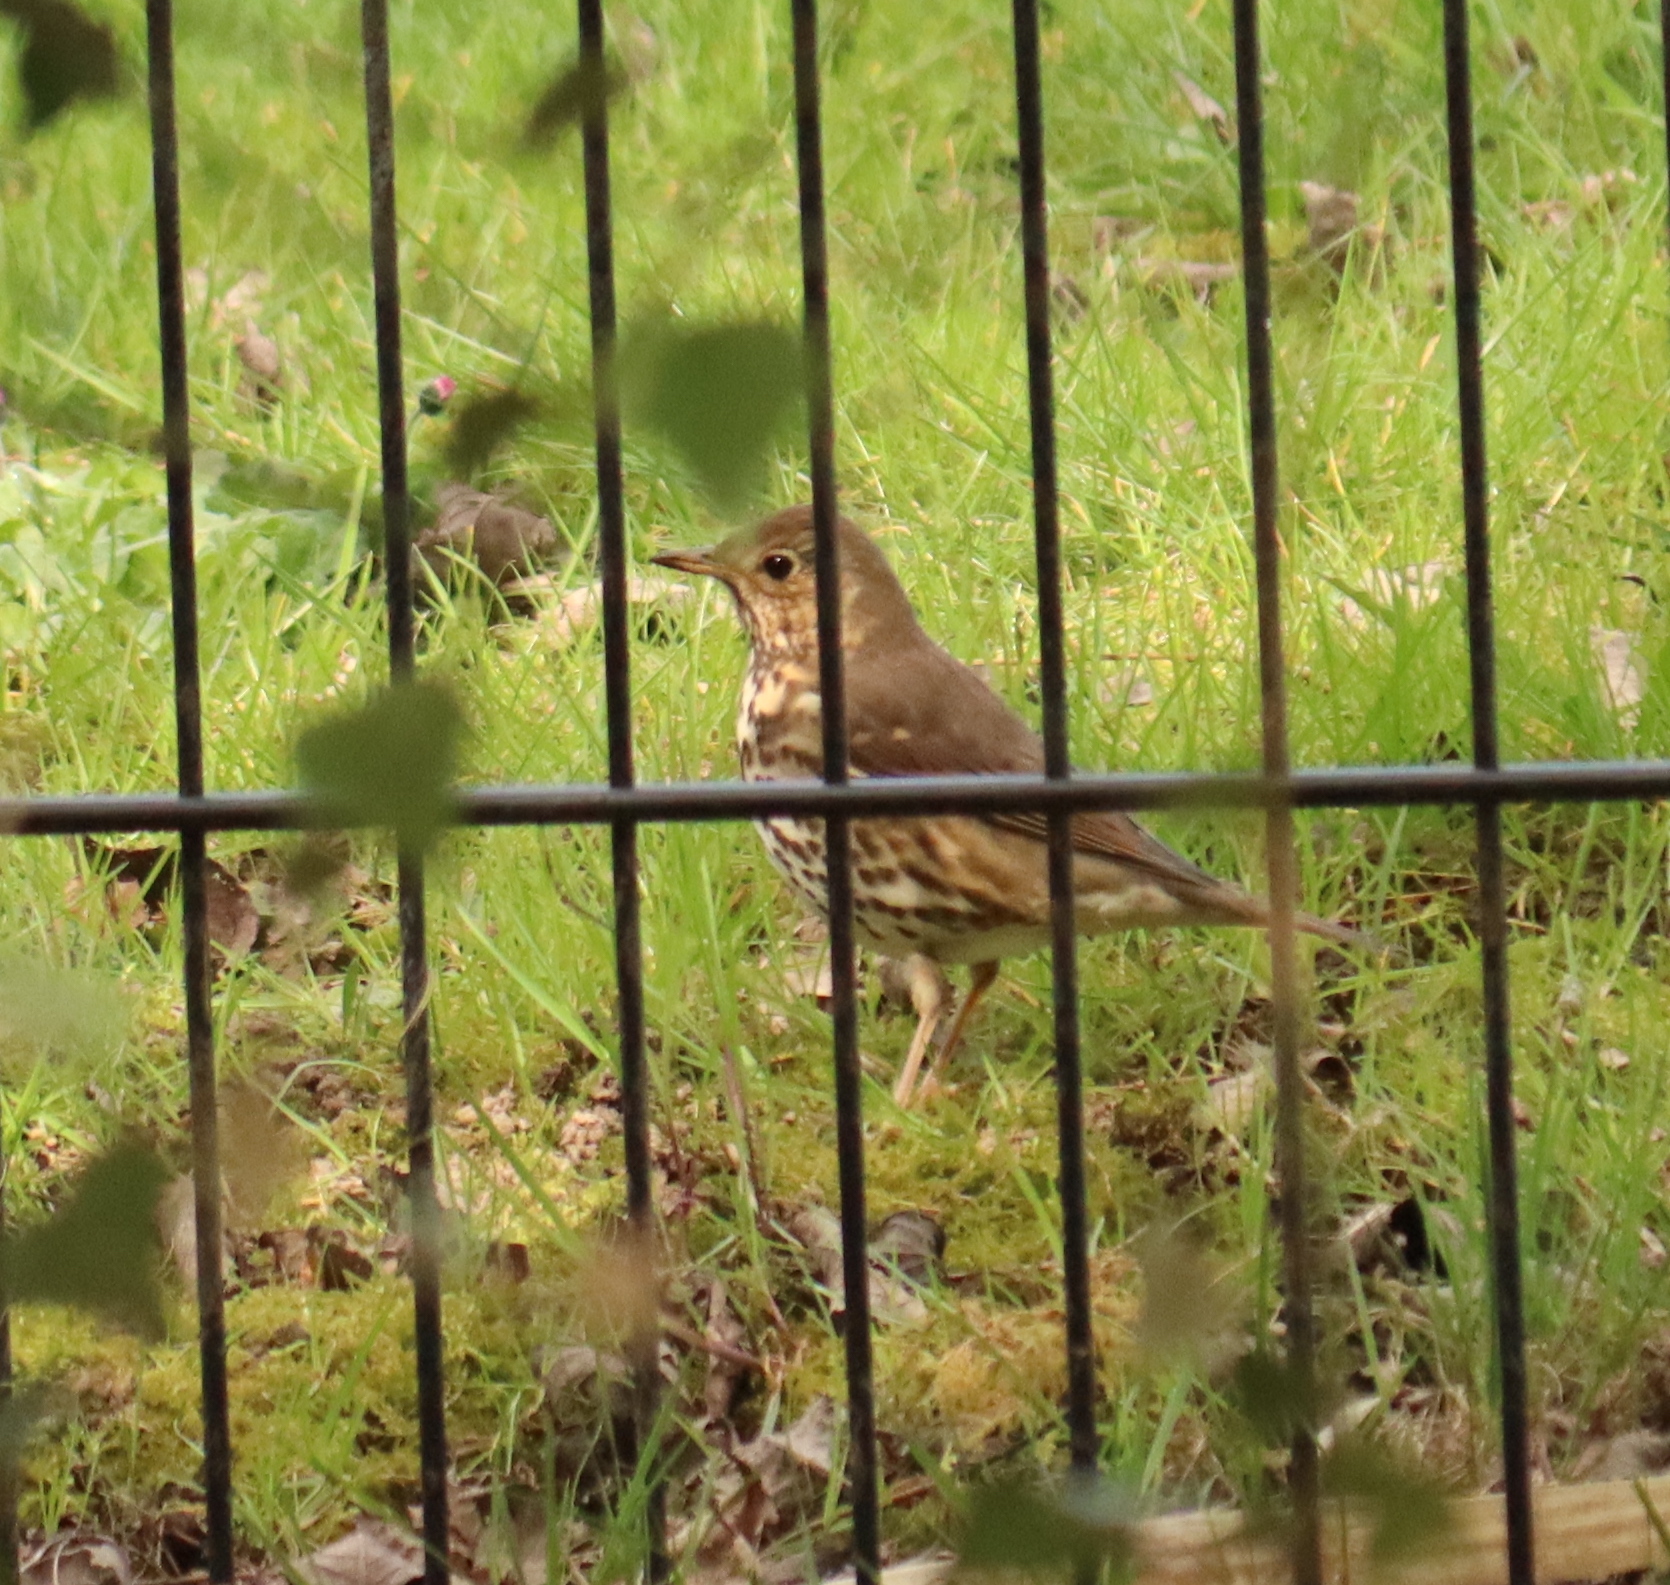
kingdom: Animalia
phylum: Chordata
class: Aves
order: Passeriformes
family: Turdidae
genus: Turdus
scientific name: Turdus philomelos
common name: Song thrush
